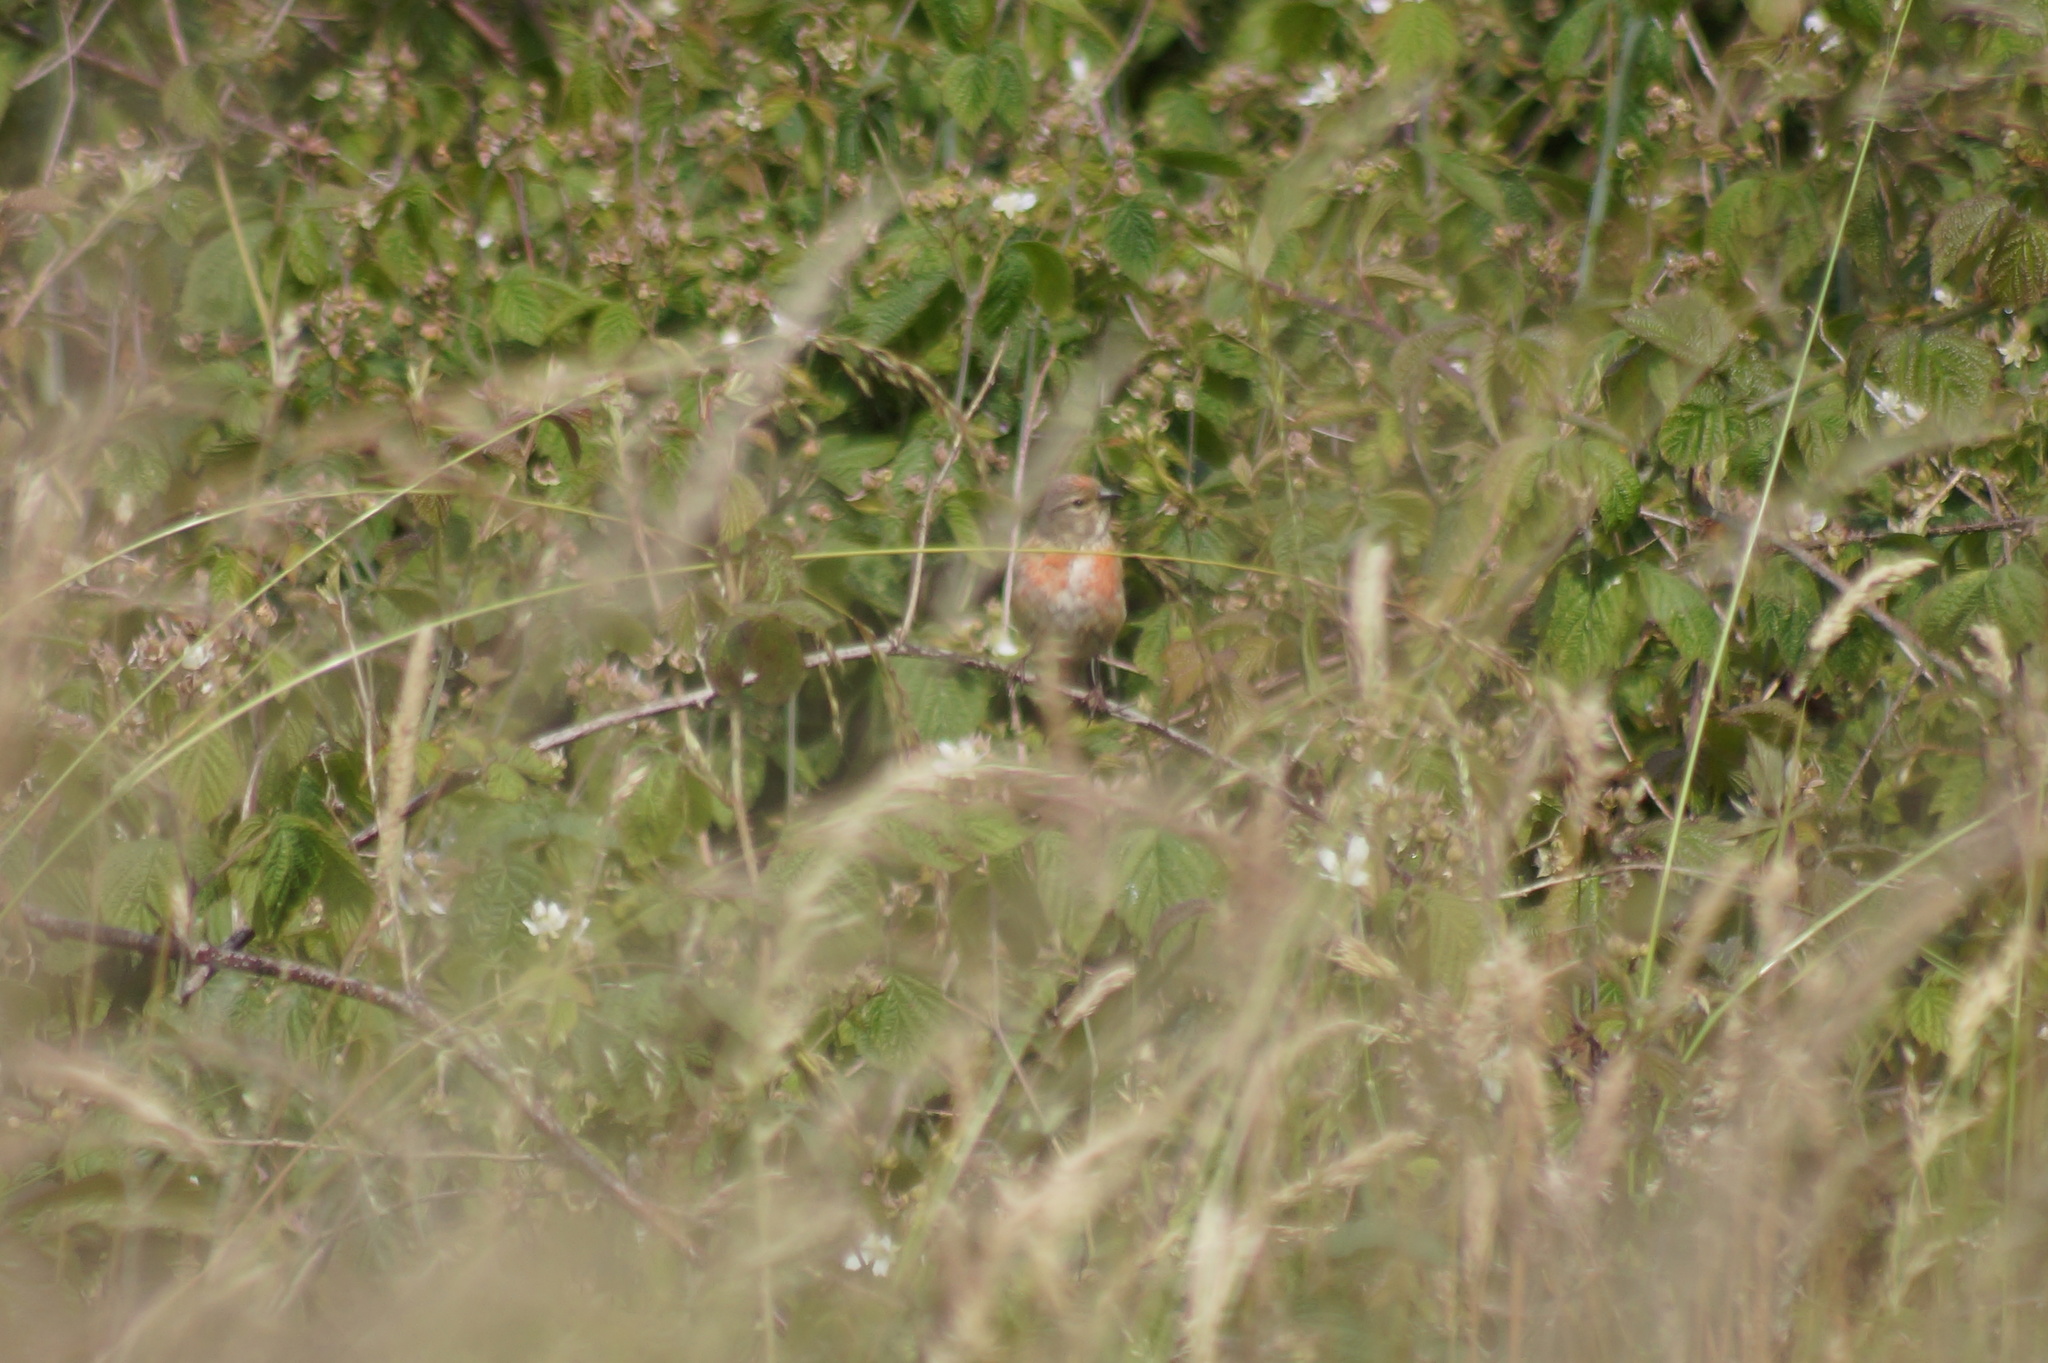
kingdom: Animalia
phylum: Chordata
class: Aves
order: Passeriformes
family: Fringillidae
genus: Linaria
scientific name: Linaria cannabina
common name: Common linnet
